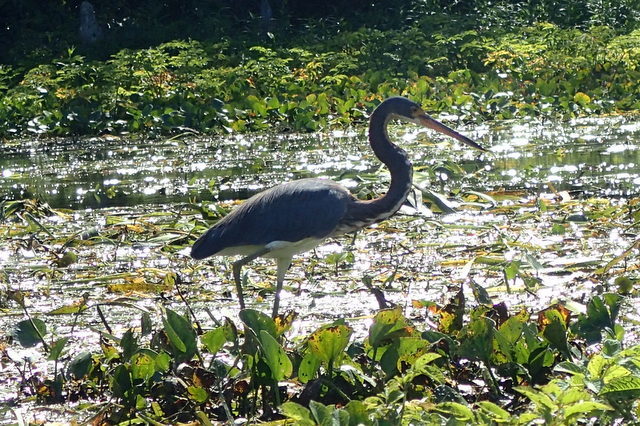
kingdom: Animalia
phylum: Chordata
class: Aves
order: Pelecaniformes
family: Ardeidae
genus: Egretta
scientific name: Egretta tricolor
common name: Tricolored heron
